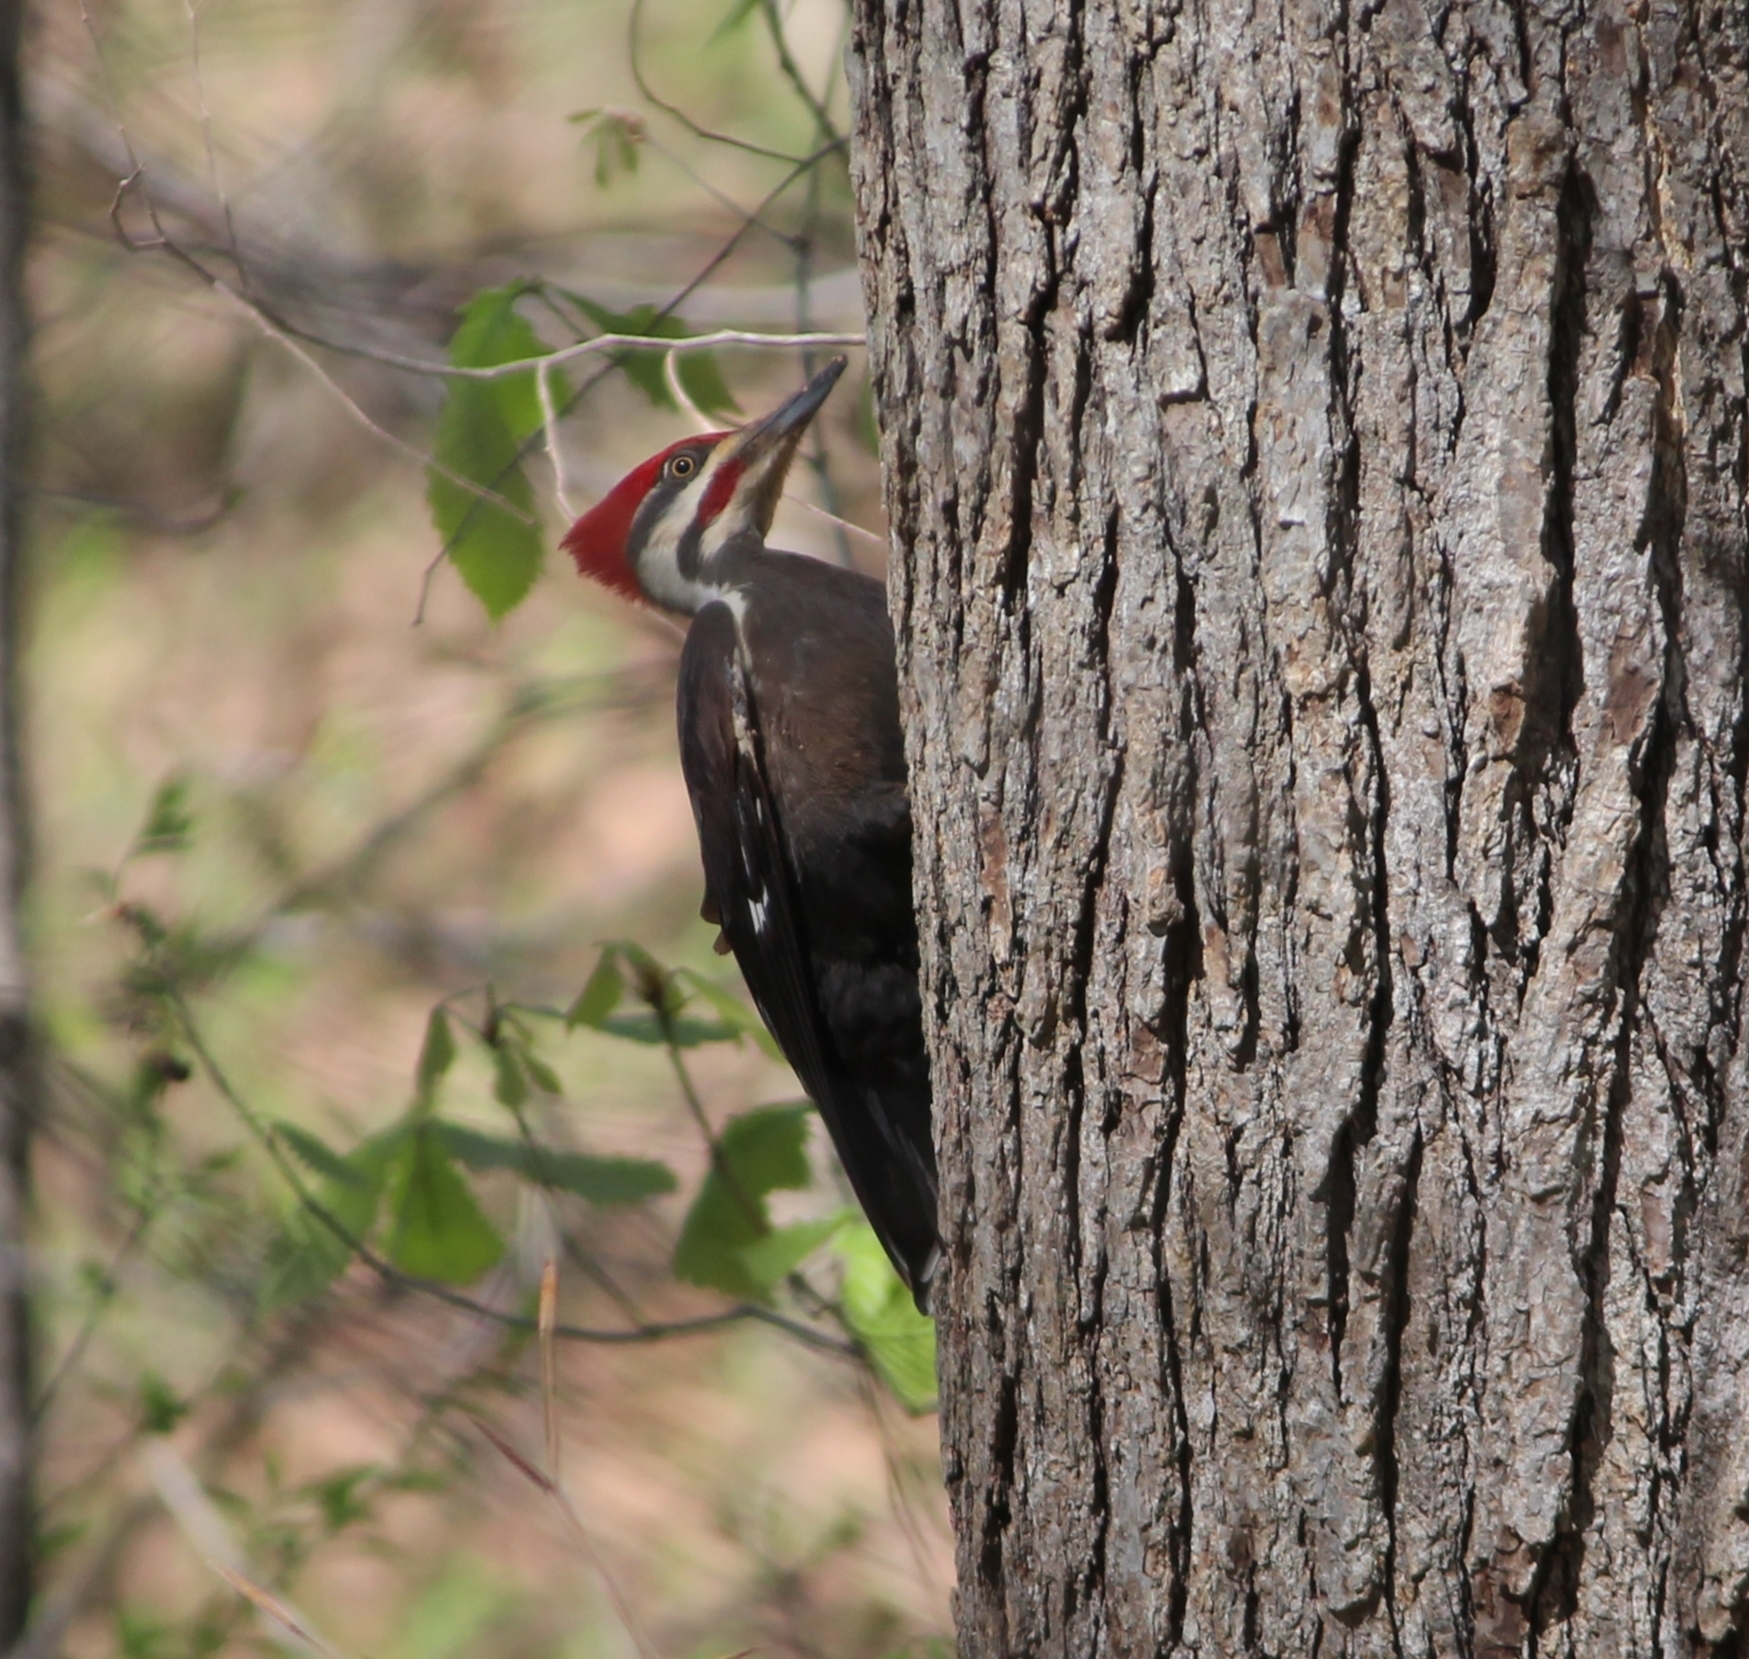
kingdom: Animalia
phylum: Chordata
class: Aves
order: Piciformes
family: Picidae
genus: Dryocopus
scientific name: Dryocopus pileatus
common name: Pileated woodpecker
